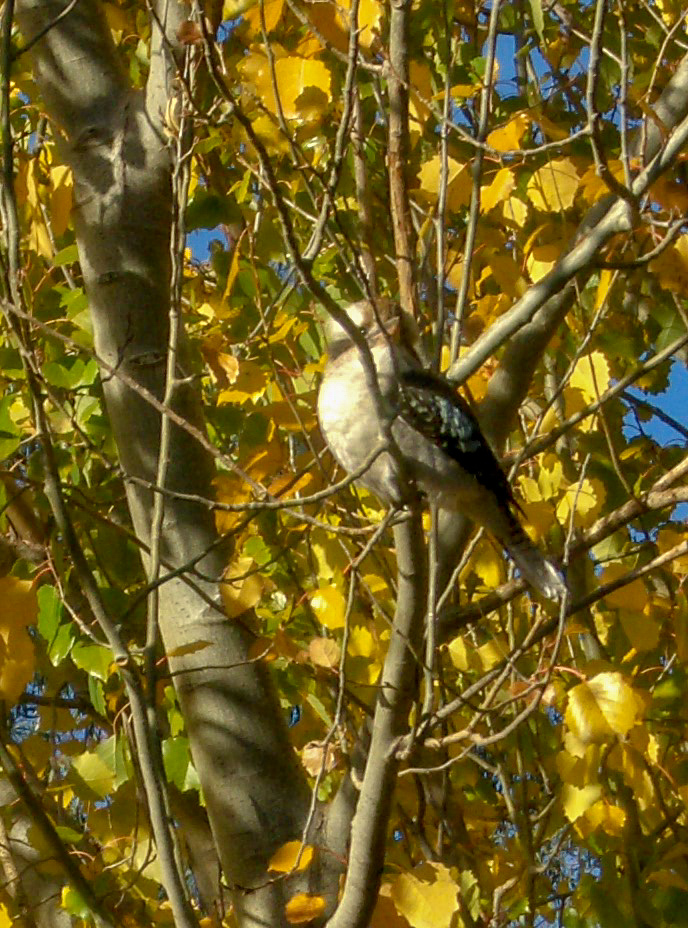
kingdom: Animalia
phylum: Chordata
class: Aves
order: Coraciiformes
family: Alcedinidae
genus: Dacelo
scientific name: Dacelo novaeguineae
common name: Laughing kookaburra
